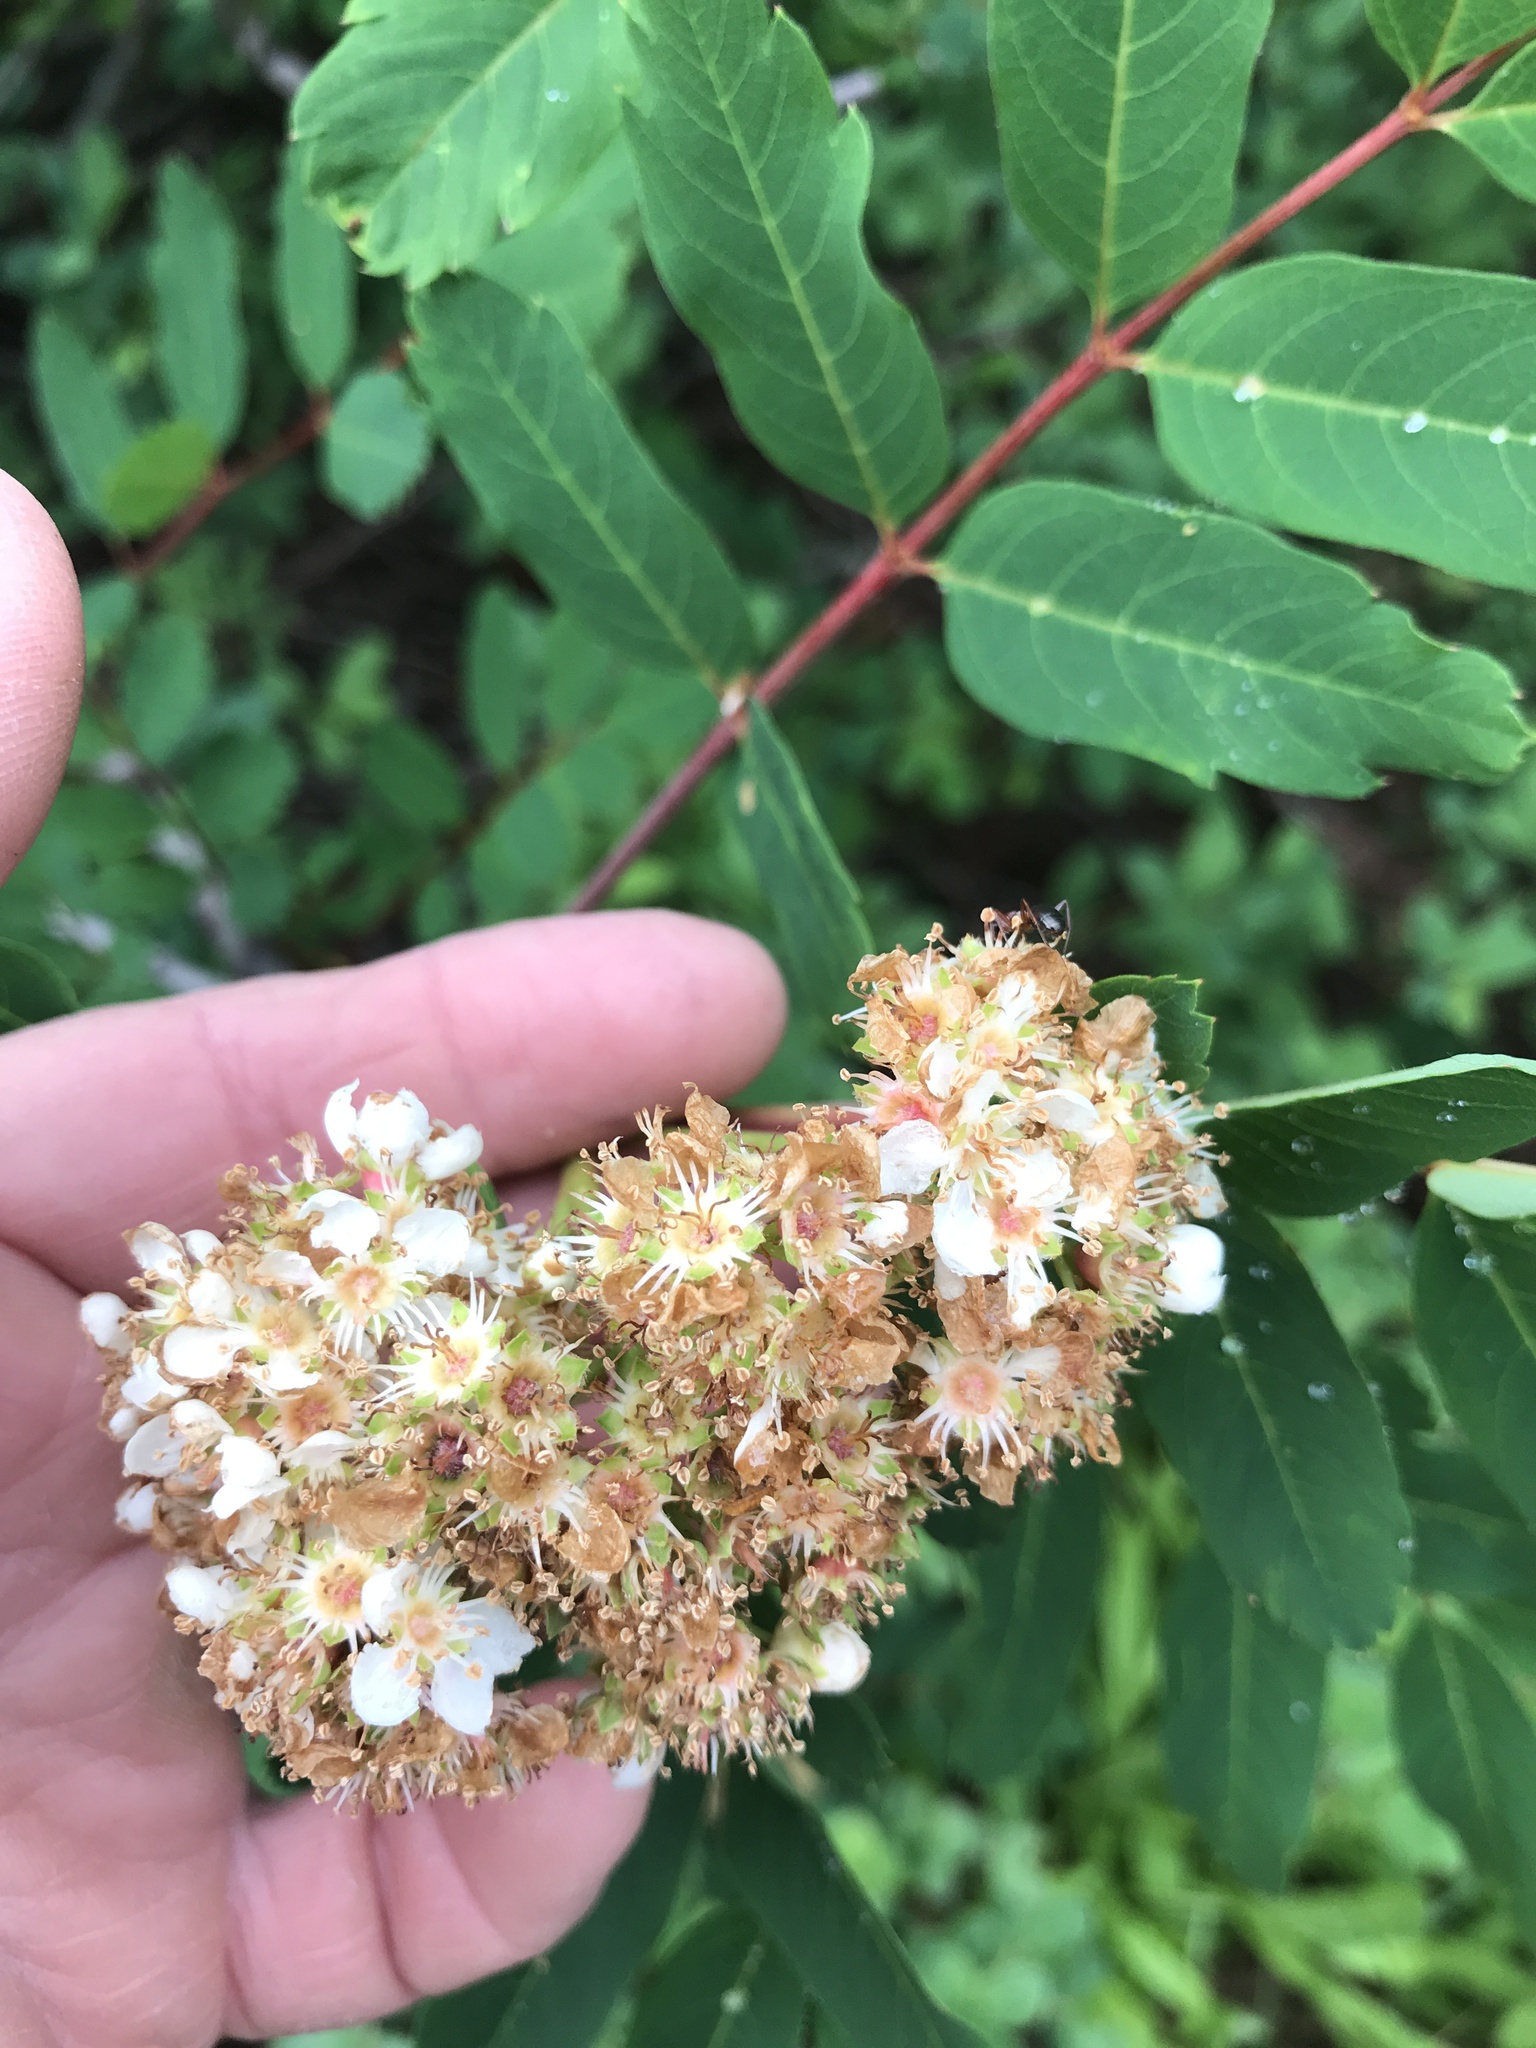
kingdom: Plantae
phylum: Tracheophyta
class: Magnoliopsida
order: Rosales
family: Rosaceae
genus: Sorbus
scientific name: Sorbus sitchensis
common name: Sitka mountain-ash
